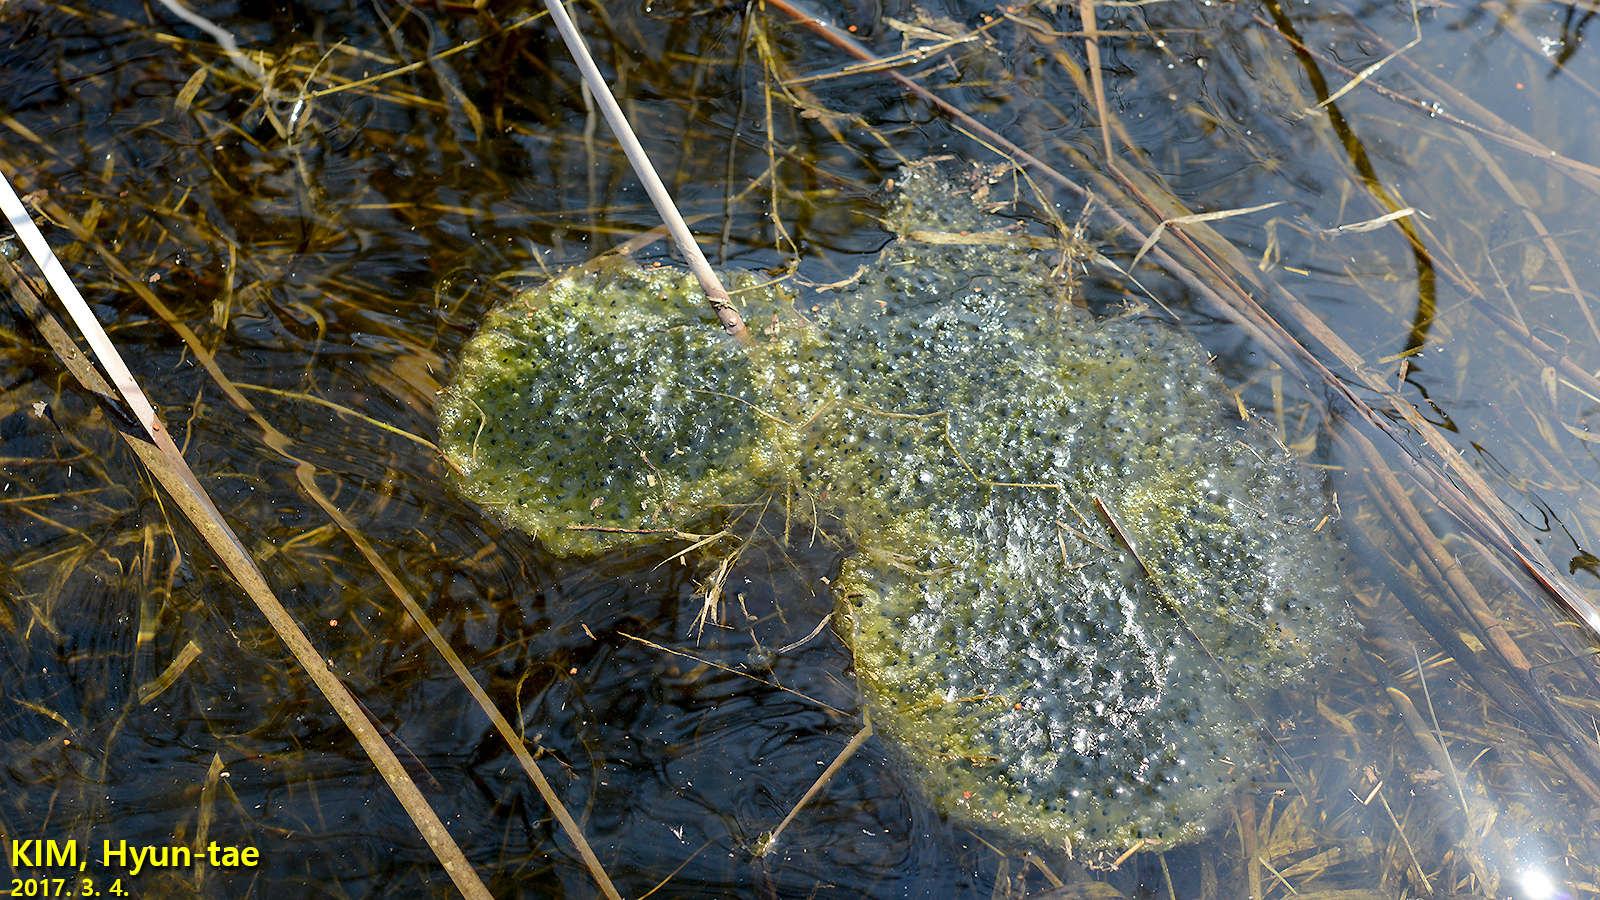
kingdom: Animalia
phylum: Chordata
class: Amphibia
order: Anura
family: Ranidae
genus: Rana
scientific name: Rana uenoi
